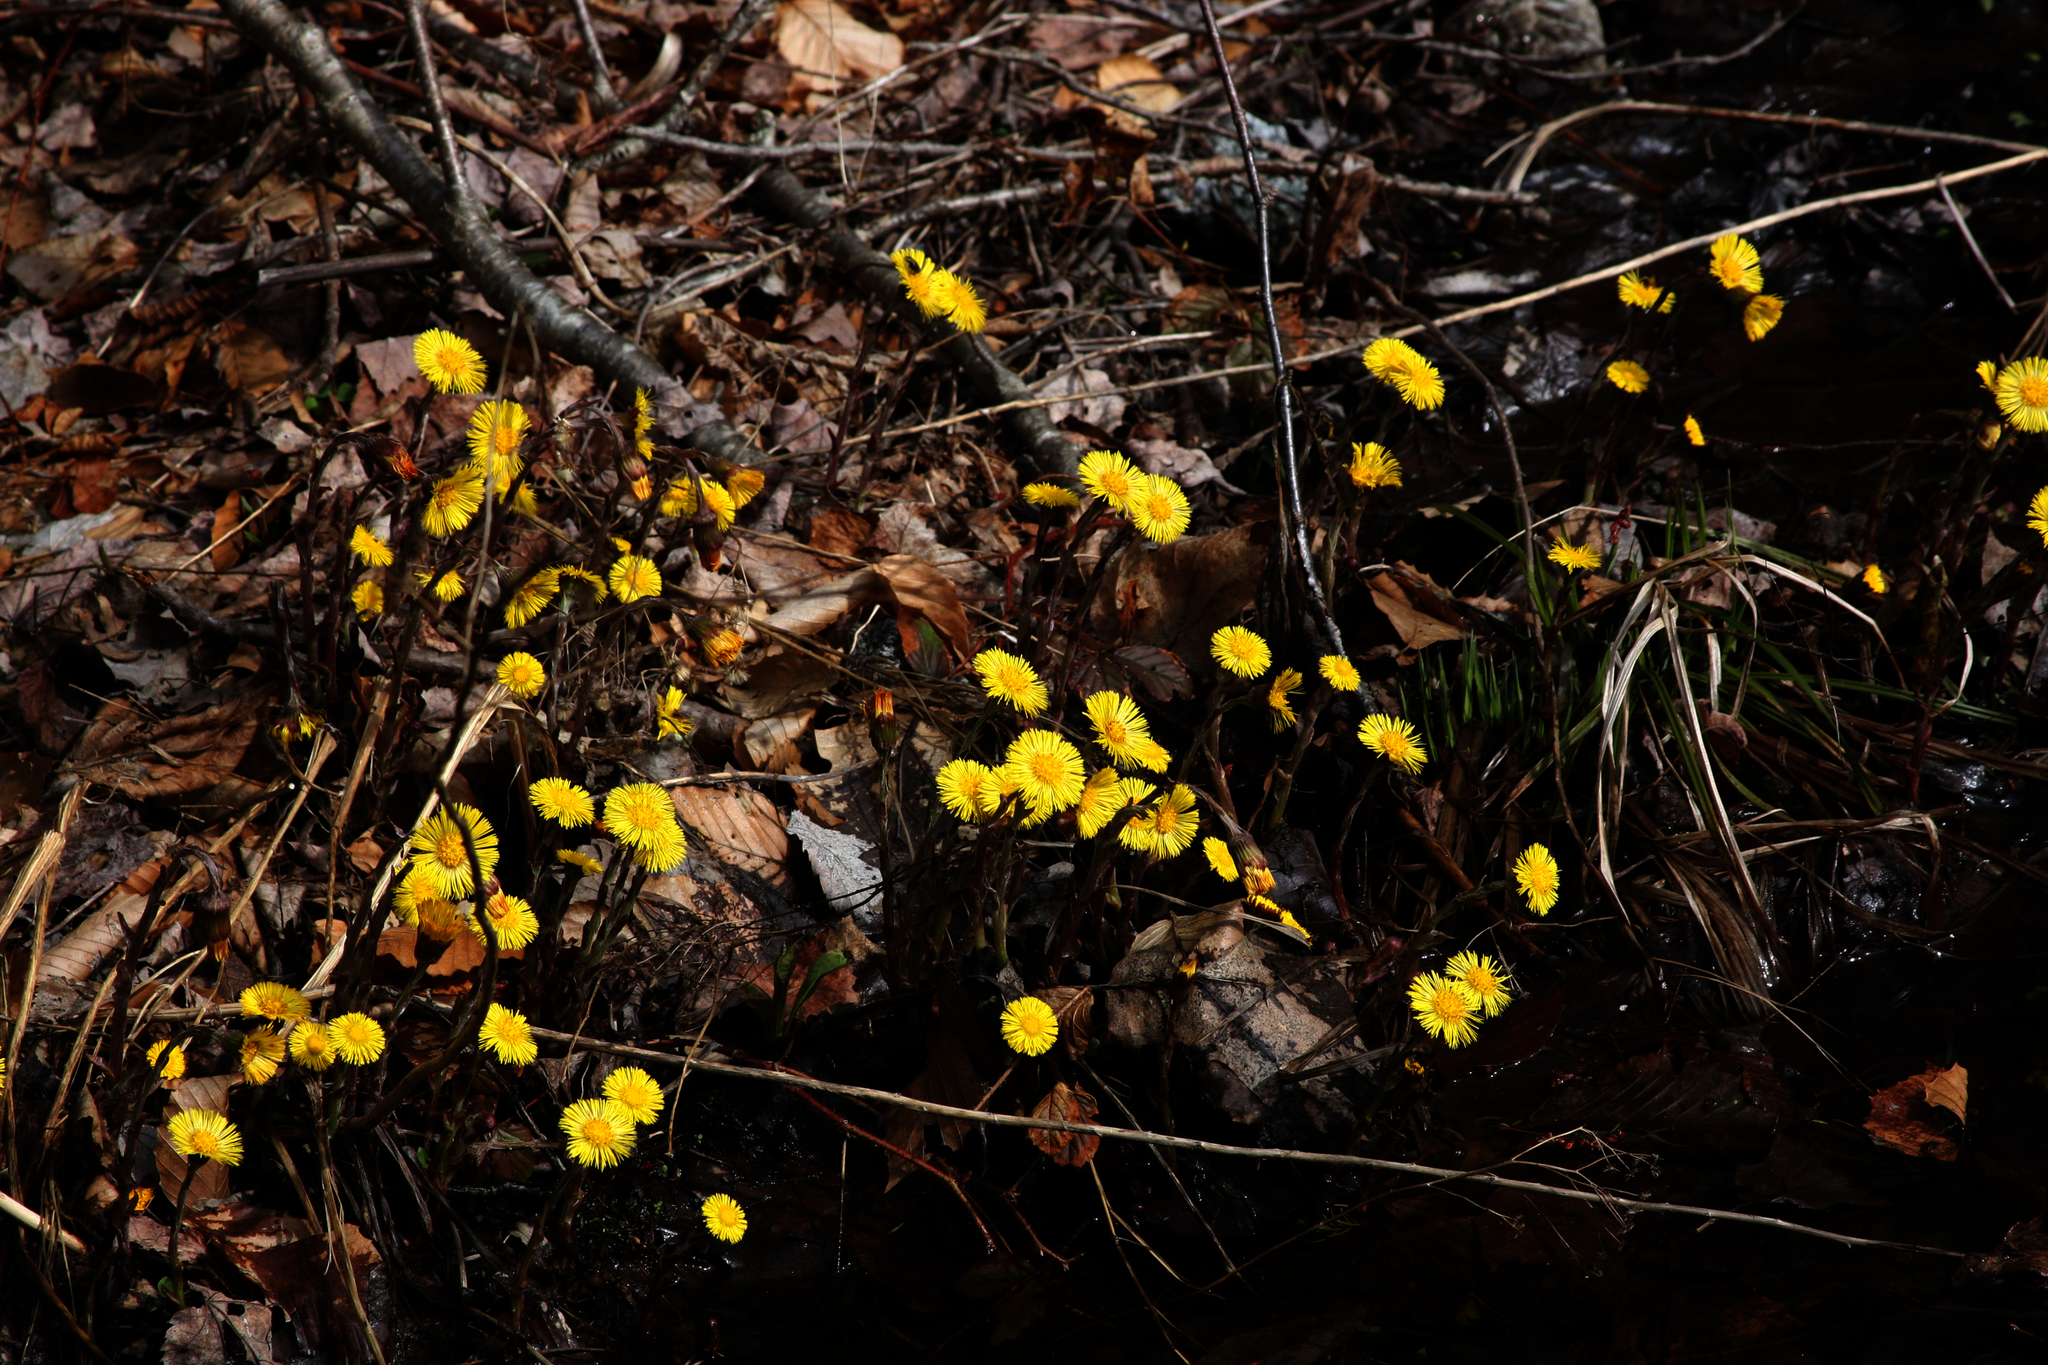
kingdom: Plantae
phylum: Tracheophyta
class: Magnoliopsida
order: Asterales
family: Asteraceae
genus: Tussilago
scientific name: Tussilago farfara
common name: Coltsfoot
